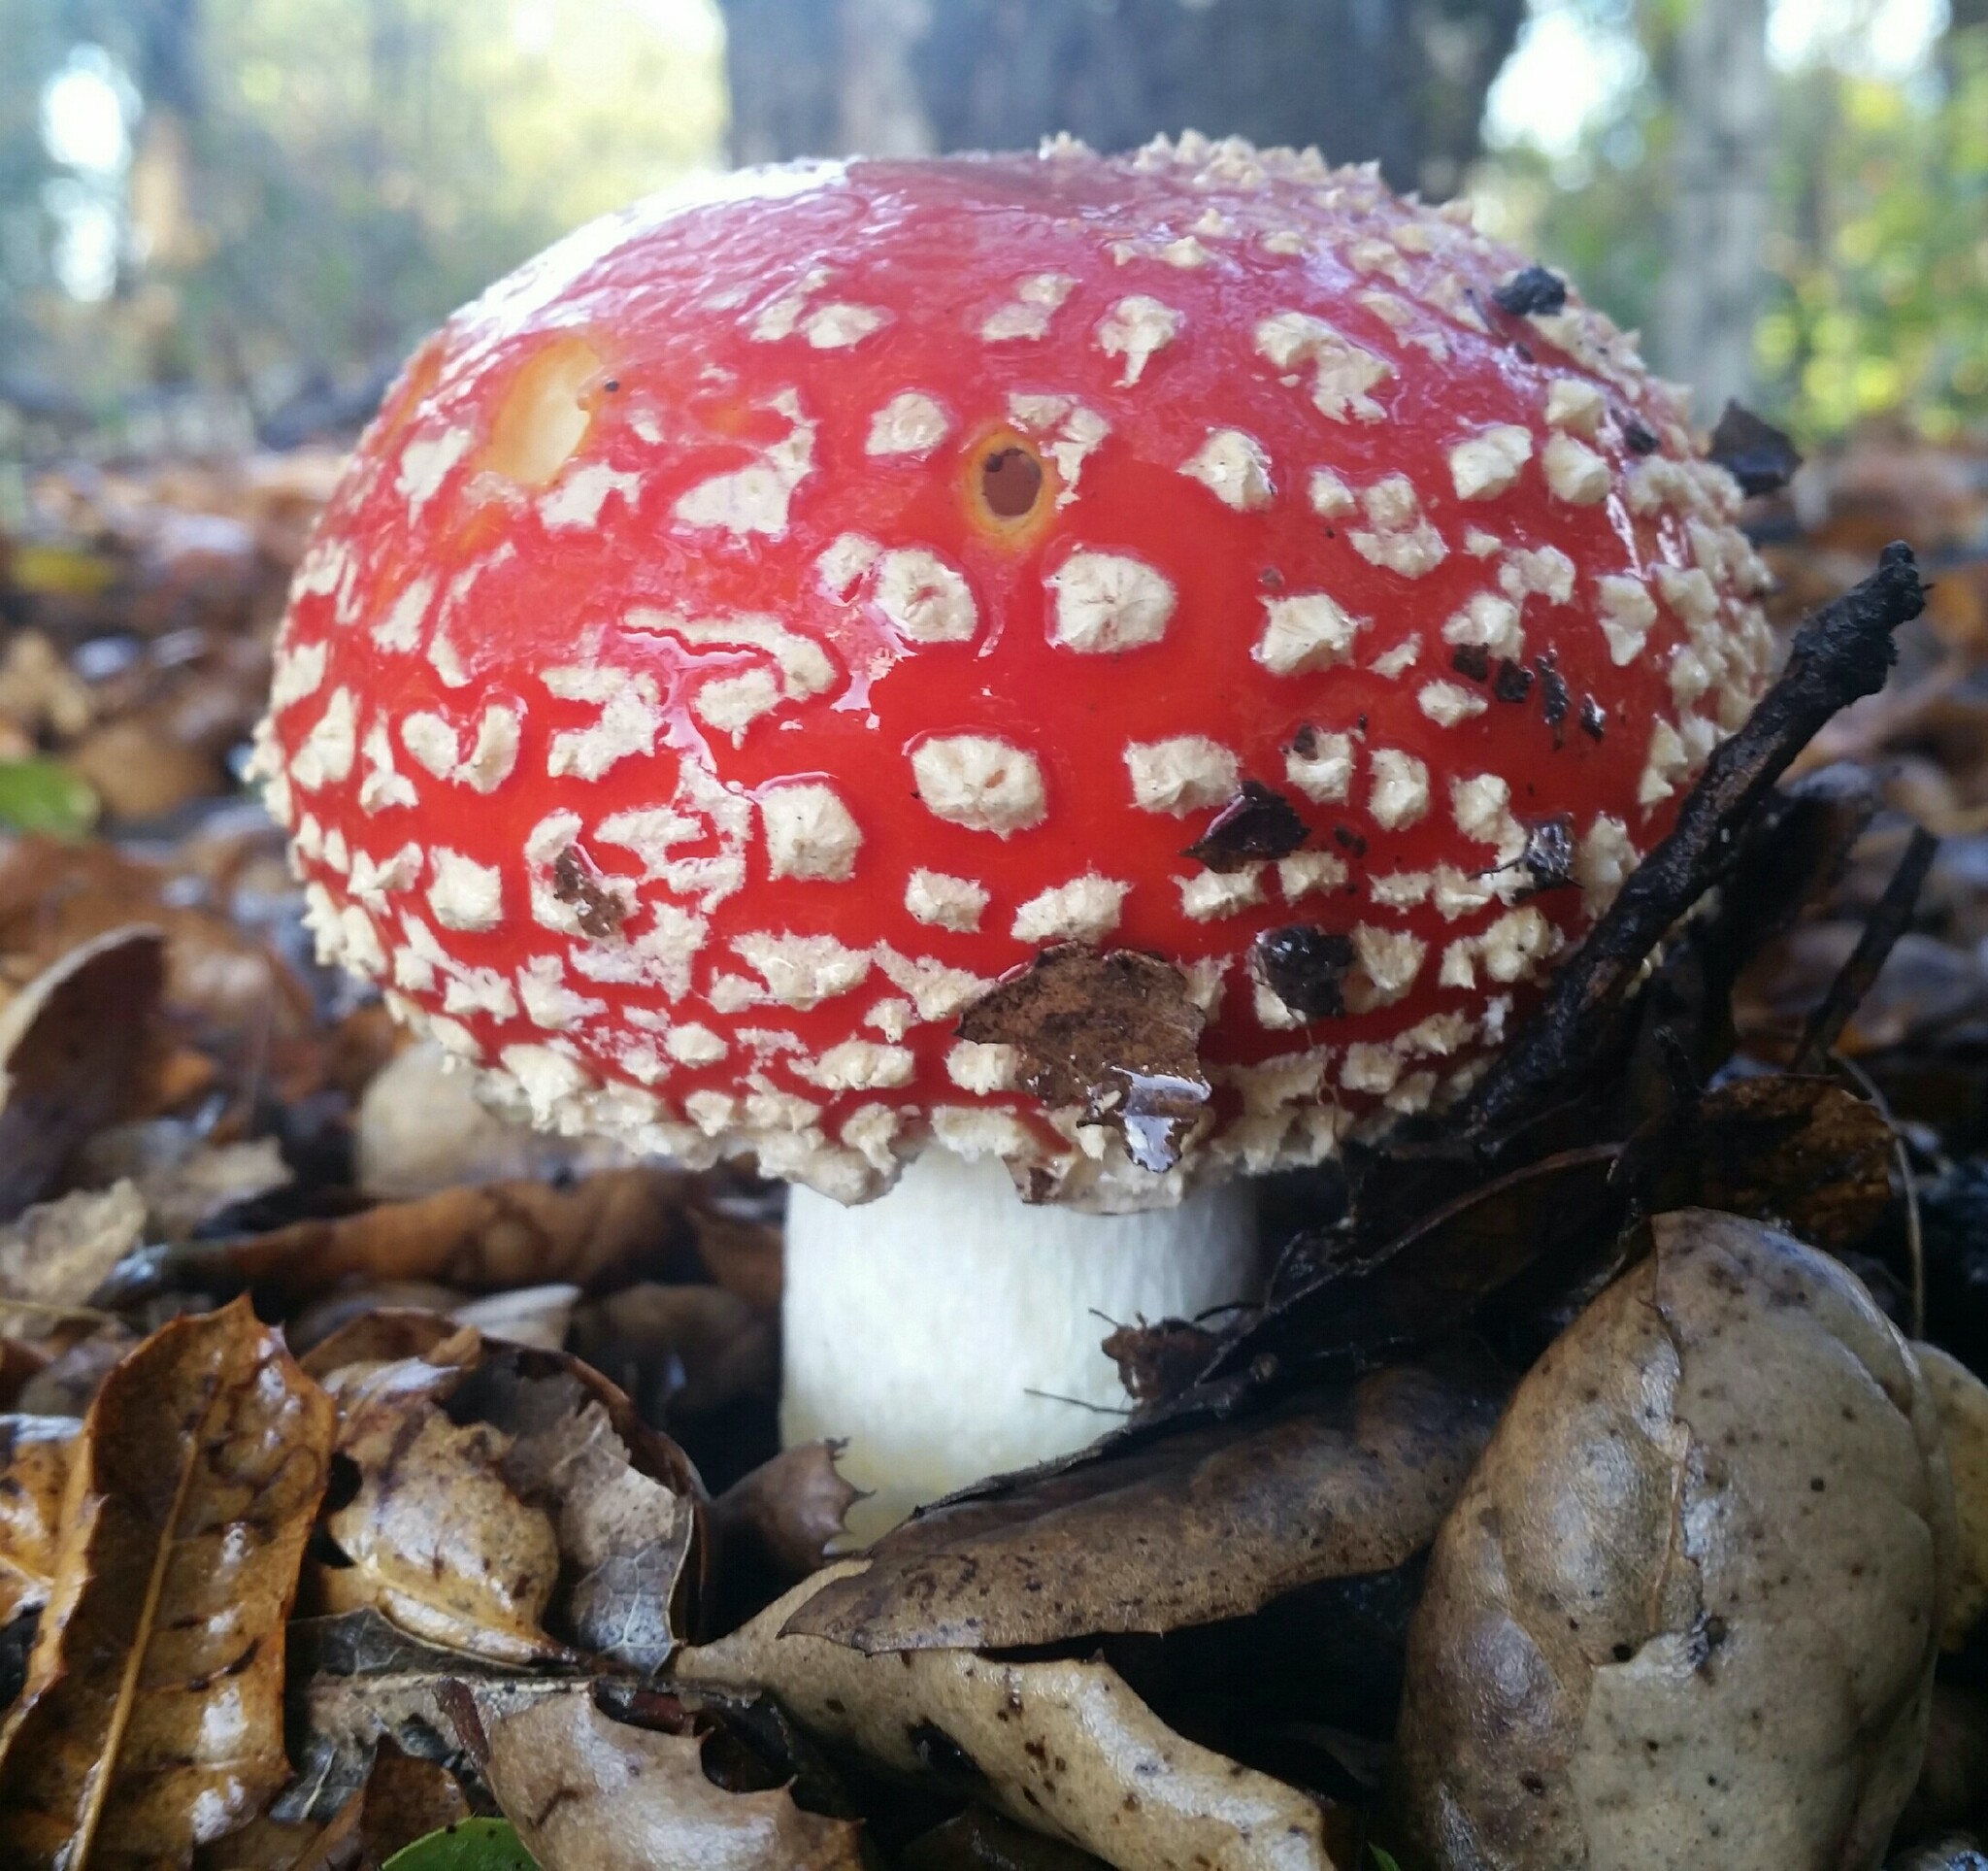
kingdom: Fungi
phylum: Basidiomycota
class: Agaricomycetes
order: Agaricales
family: Amanitaceae
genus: Amanita
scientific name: Amanita muscaria
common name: Fly agaric
